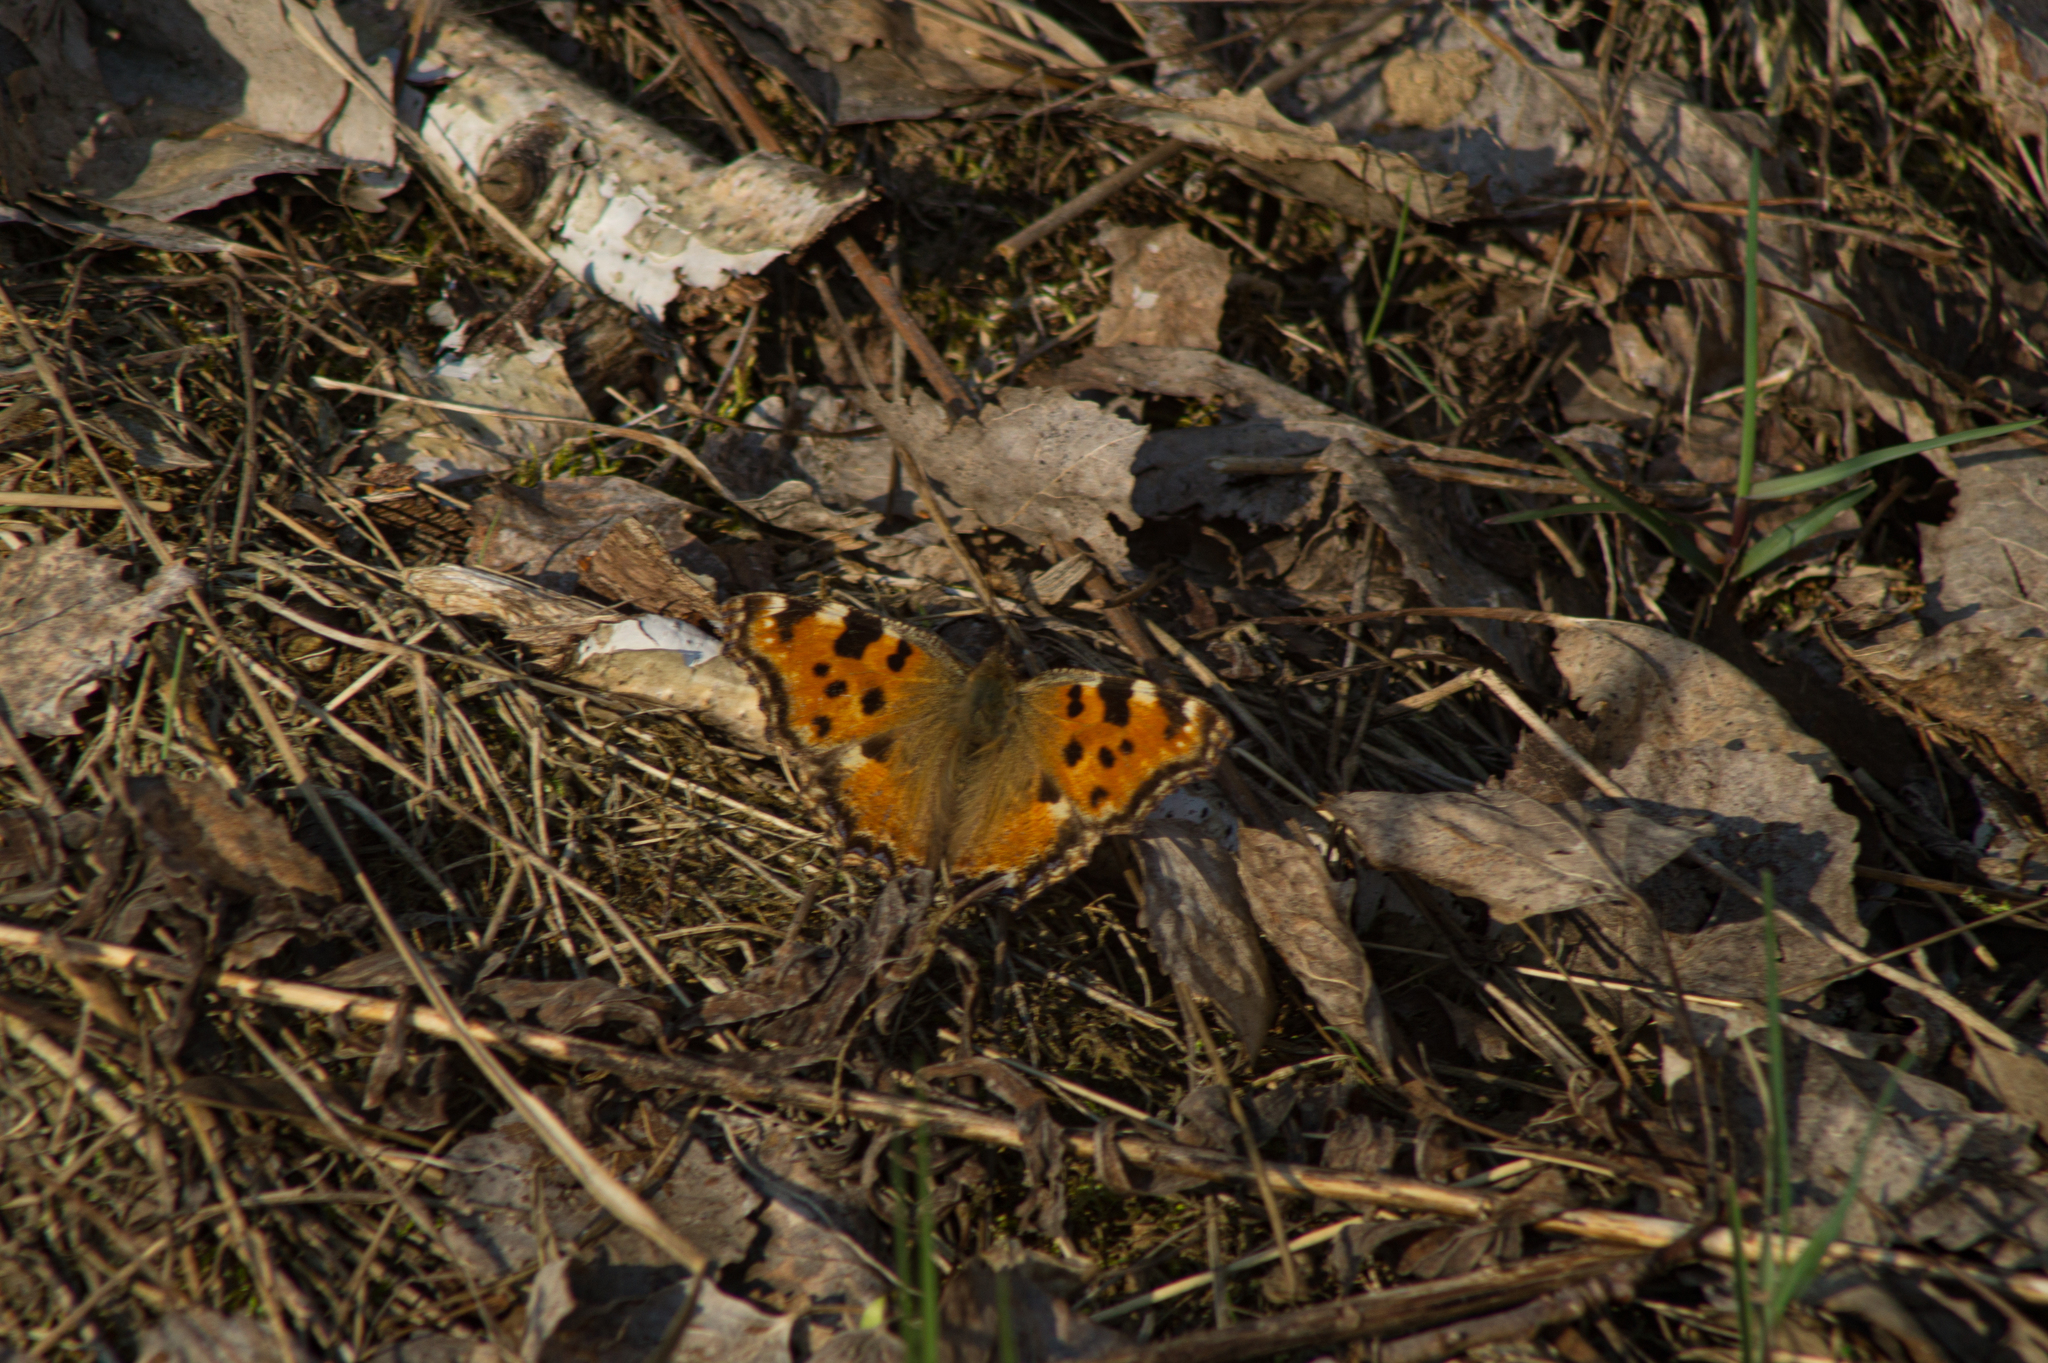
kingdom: Animalia
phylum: Arthropoda
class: Insecta
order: Lepidoptera
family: Nymphalidae
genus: Nymphalis
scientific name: Nymphalis polychloros
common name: Large tortoiseshell
